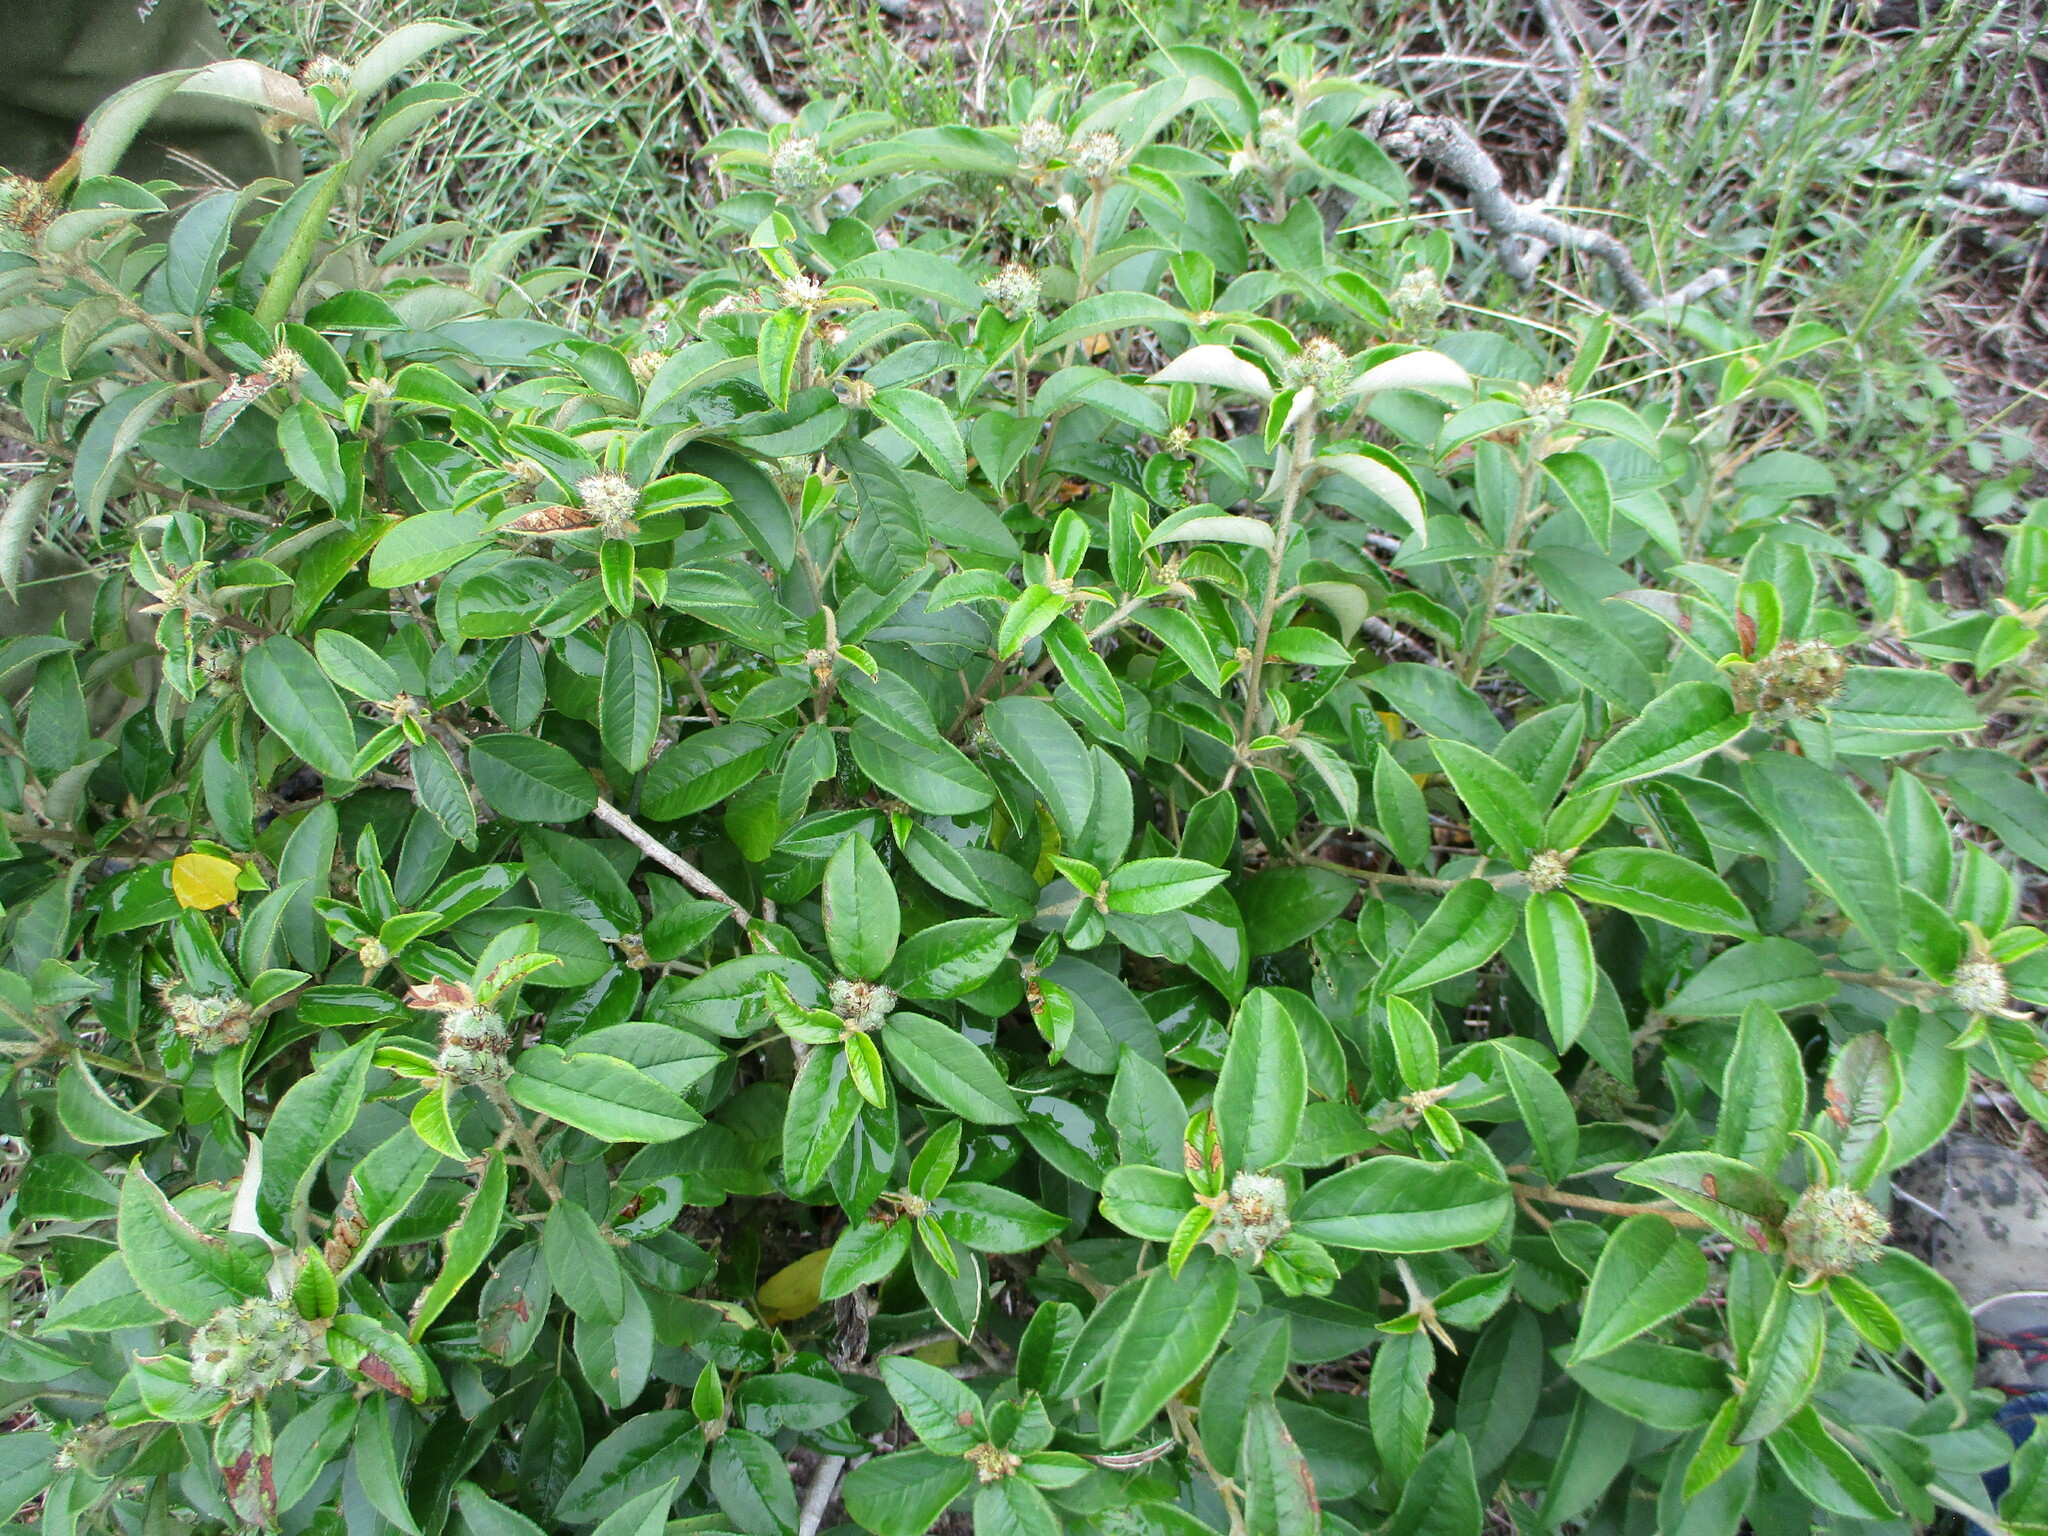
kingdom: Plantae
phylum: Tracheophyta
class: Magnoliopsida
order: Malpighiales
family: Euphorbiaceae
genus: Croton
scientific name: Croton cortesianus
